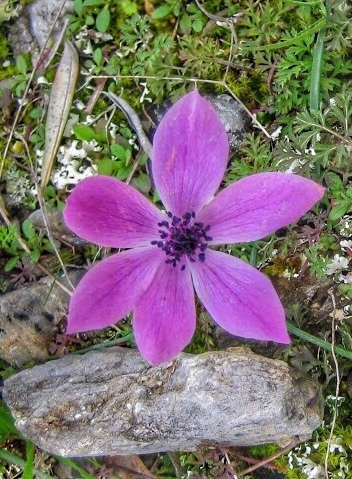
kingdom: Plantae
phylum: Tracheophyta
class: Magnoliopsida
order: Ranunculales
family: Ranunculaceae
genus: Anemone
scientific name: Anemone coronaria
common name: Poppy anemone
